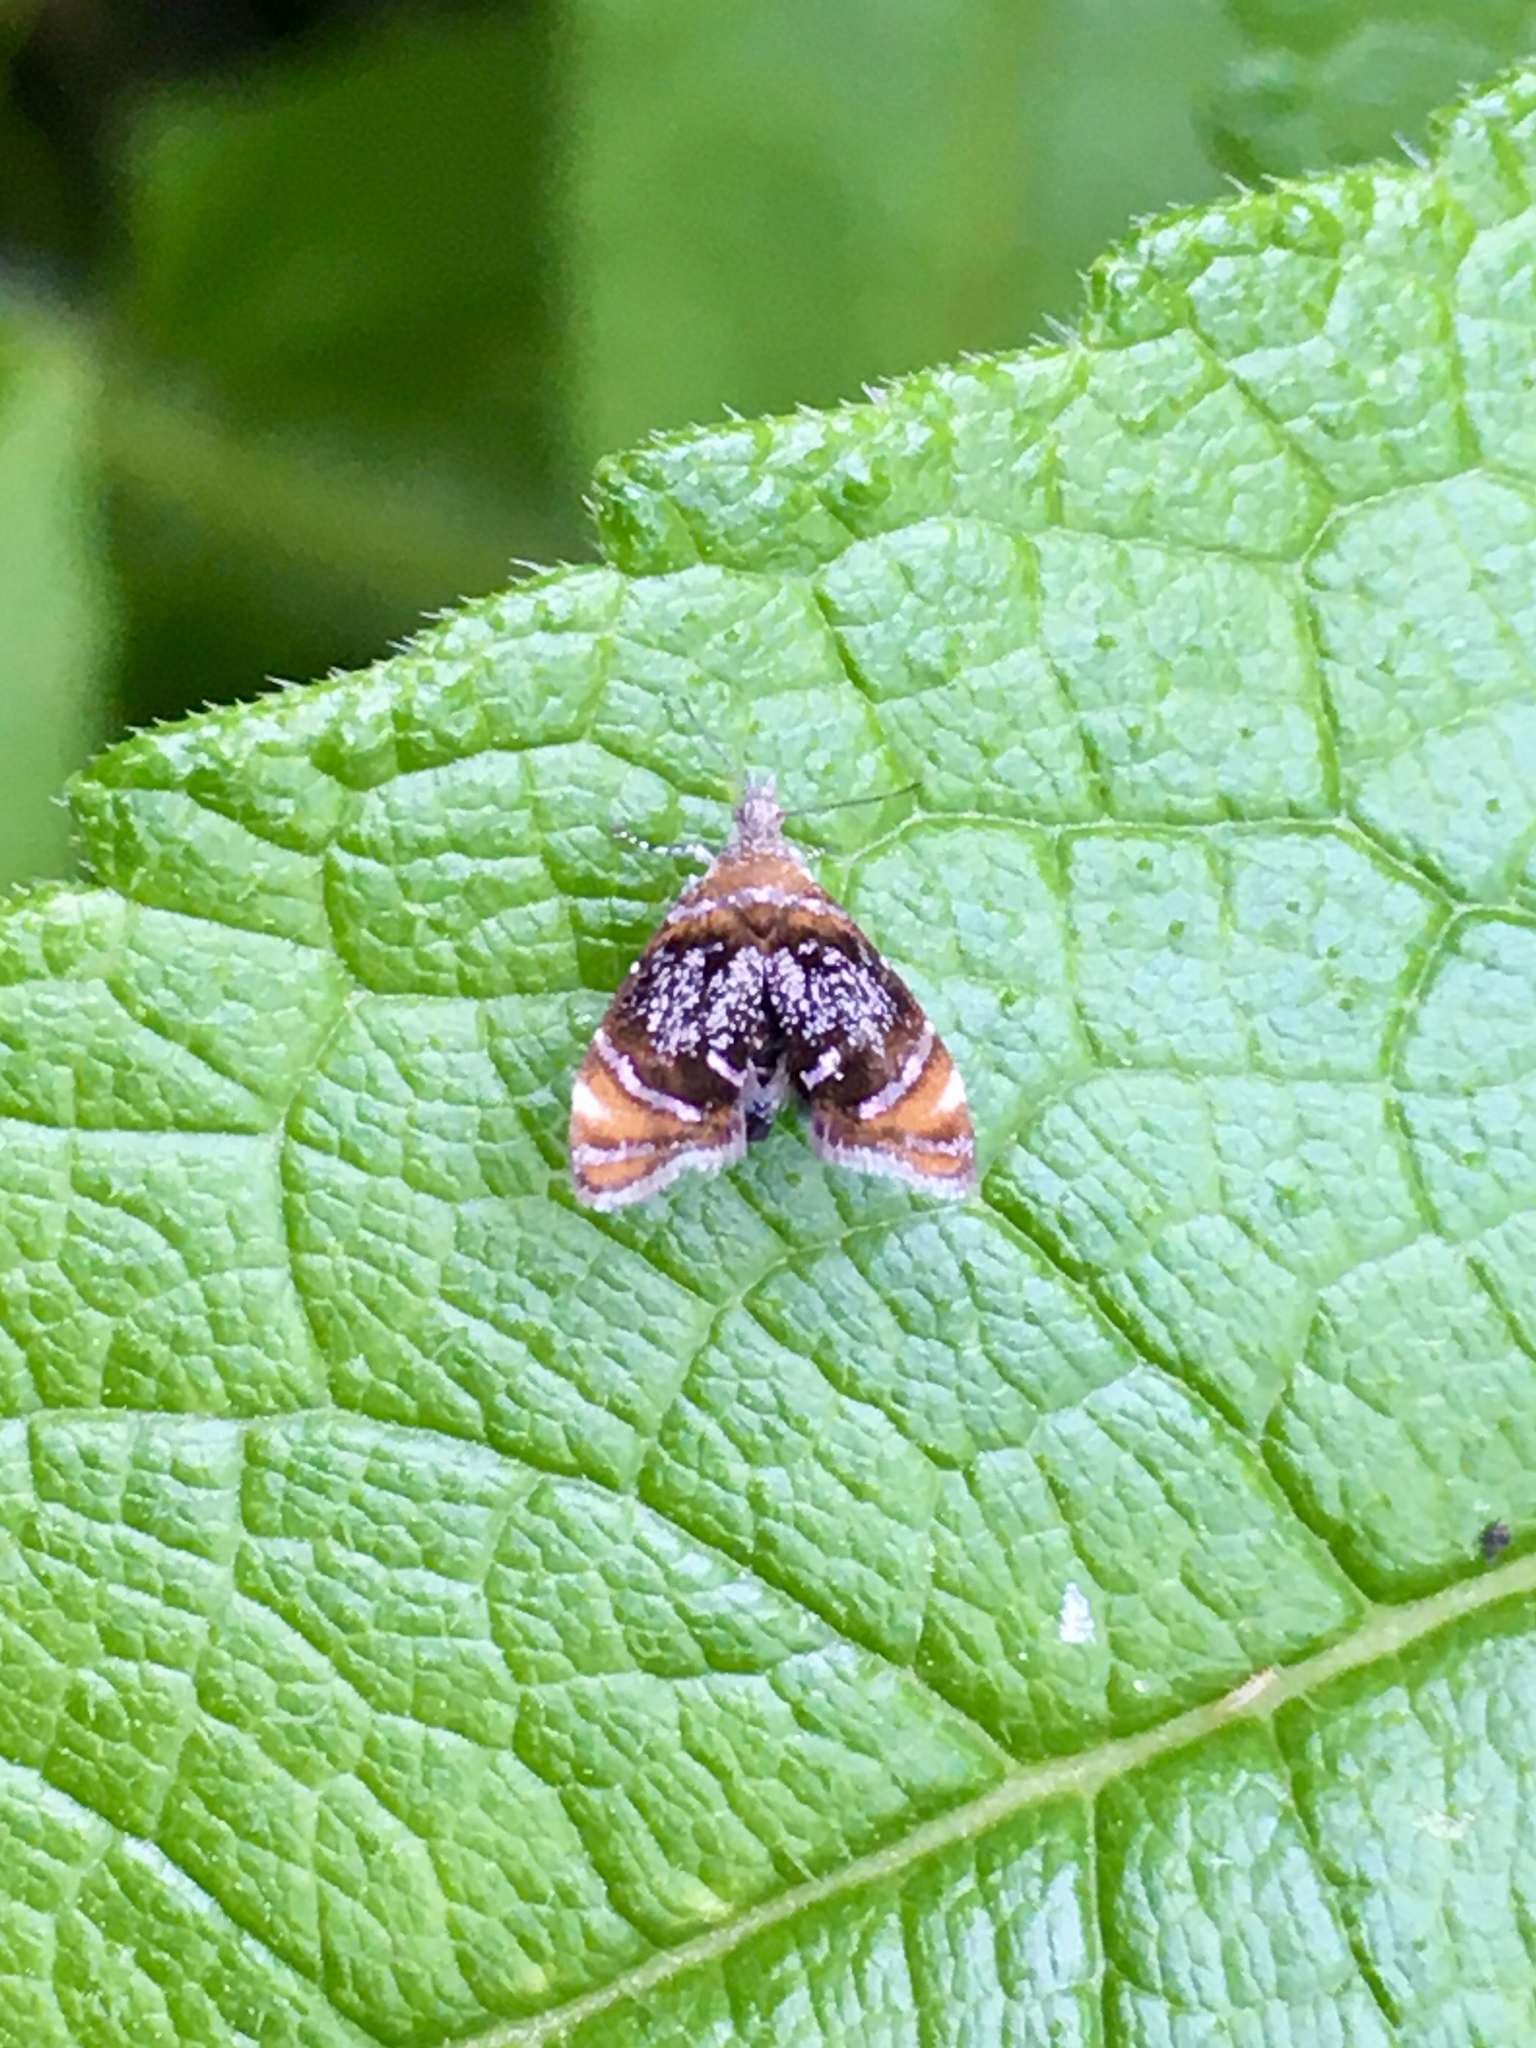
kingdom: Animalia
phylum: Arthropoda
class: Insecta
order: Lepidoptera
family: Choreutidae
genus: Prochoreutis
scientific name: Prochoreutis inflatella
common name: Skullcap skeletonizer moth
